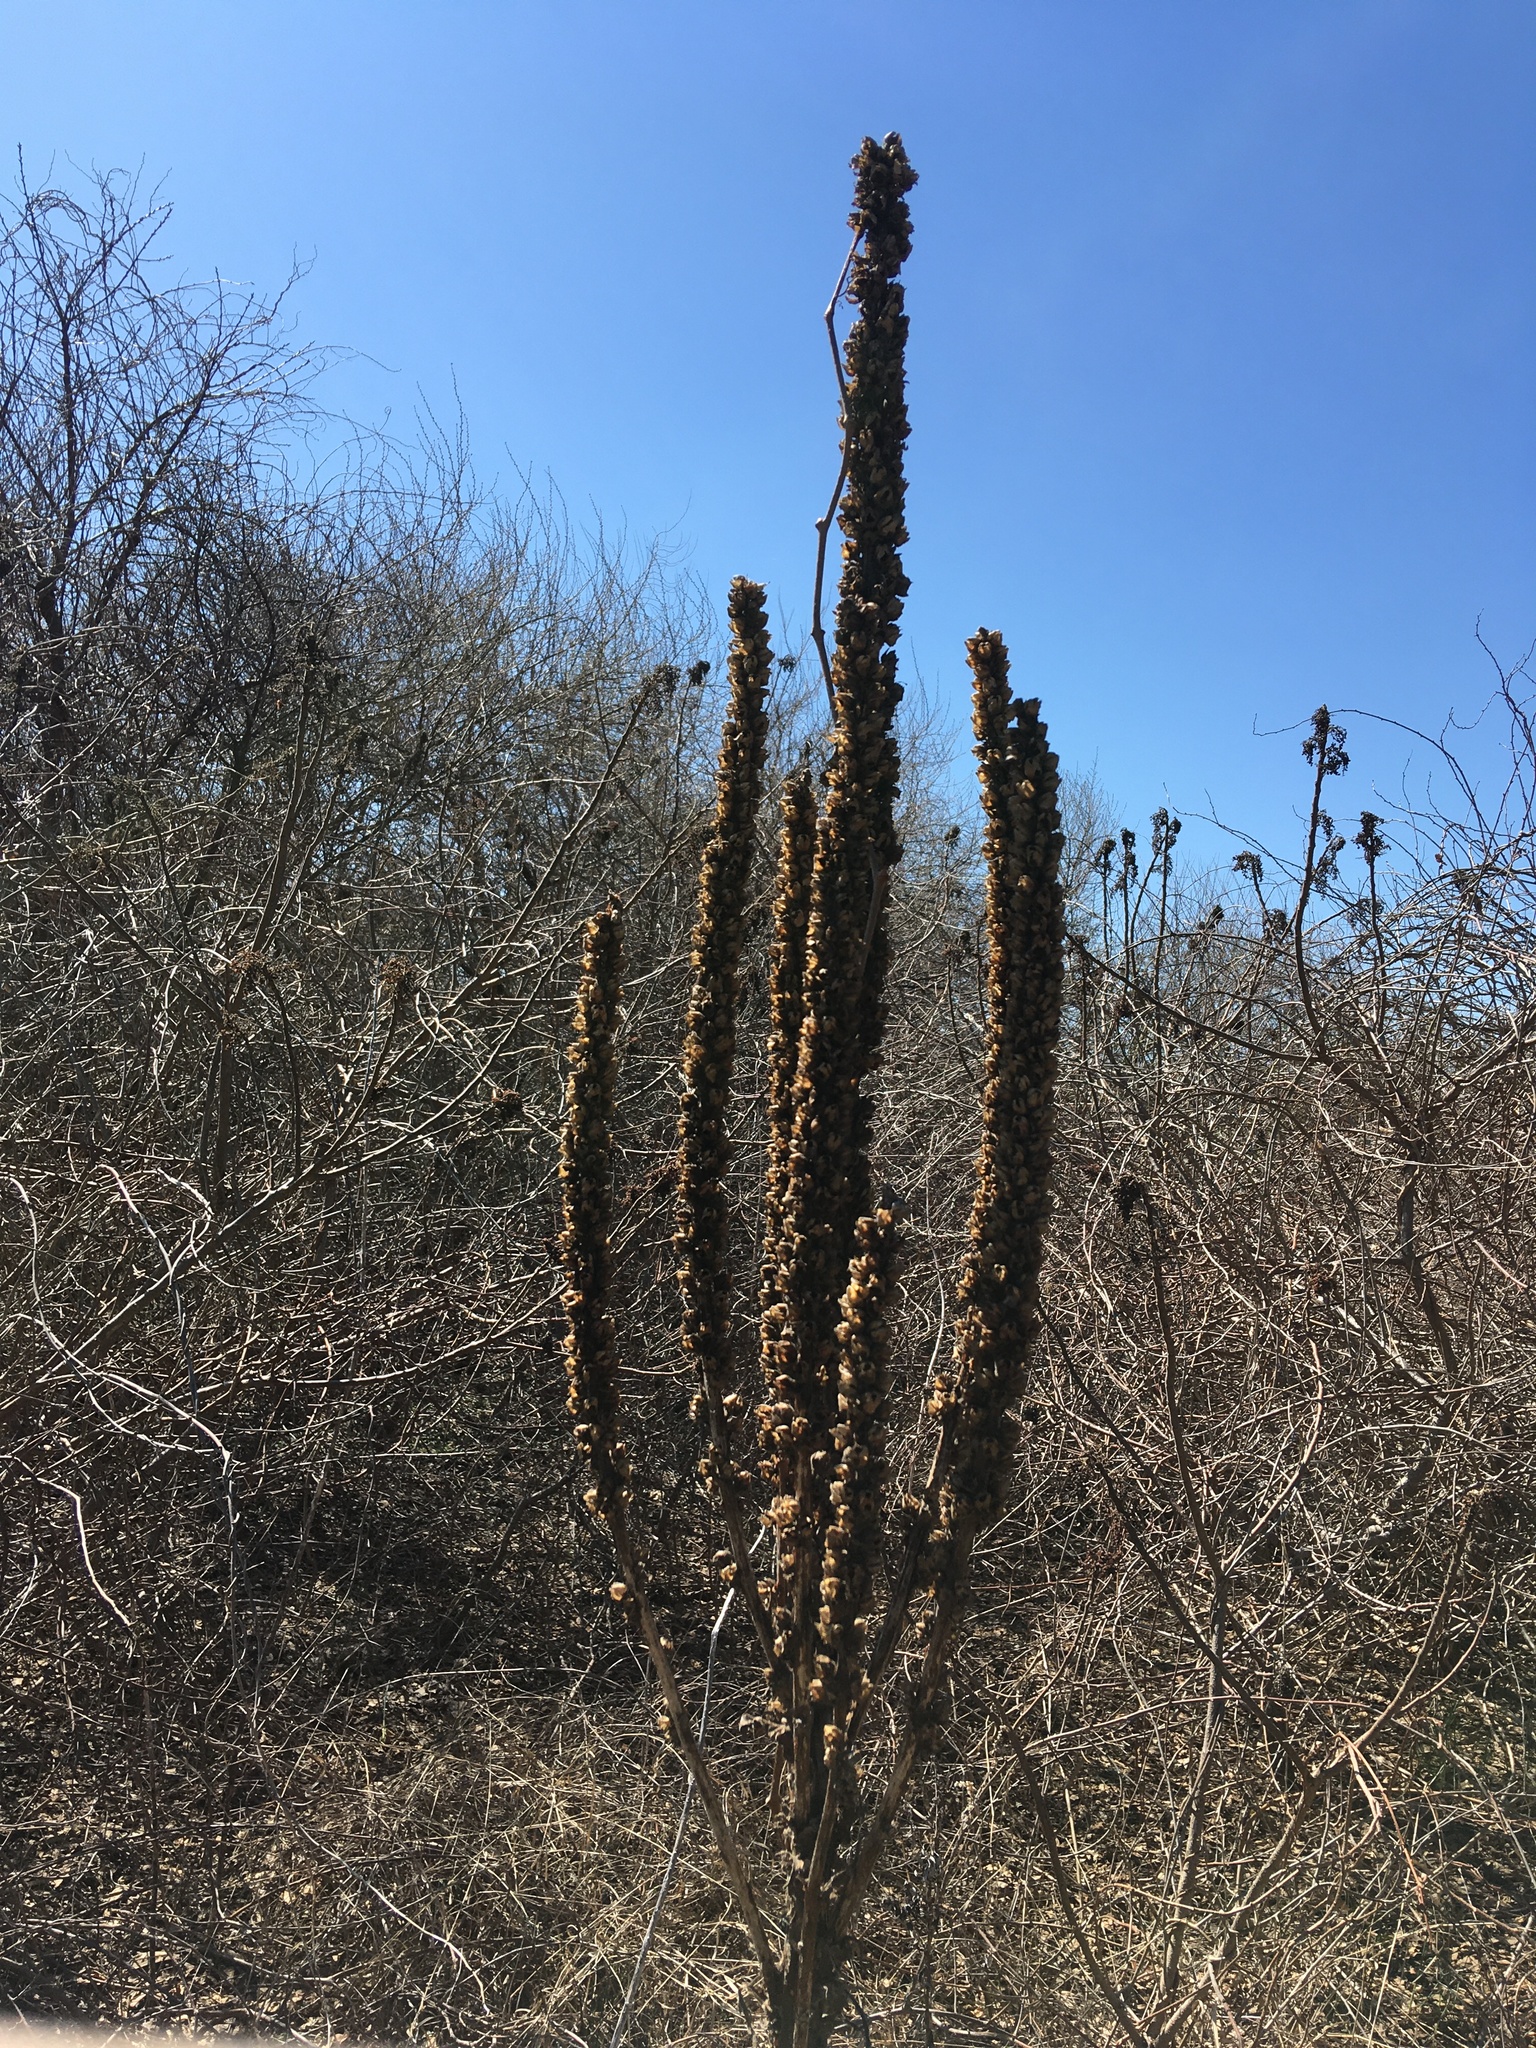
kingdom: Plantae
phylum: Tracheophyta
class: Magnoliopsida
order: Lamiales
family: Scrophulariaceae
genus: Verbascum
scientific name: Verbascum thapsus
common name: Common mullein
